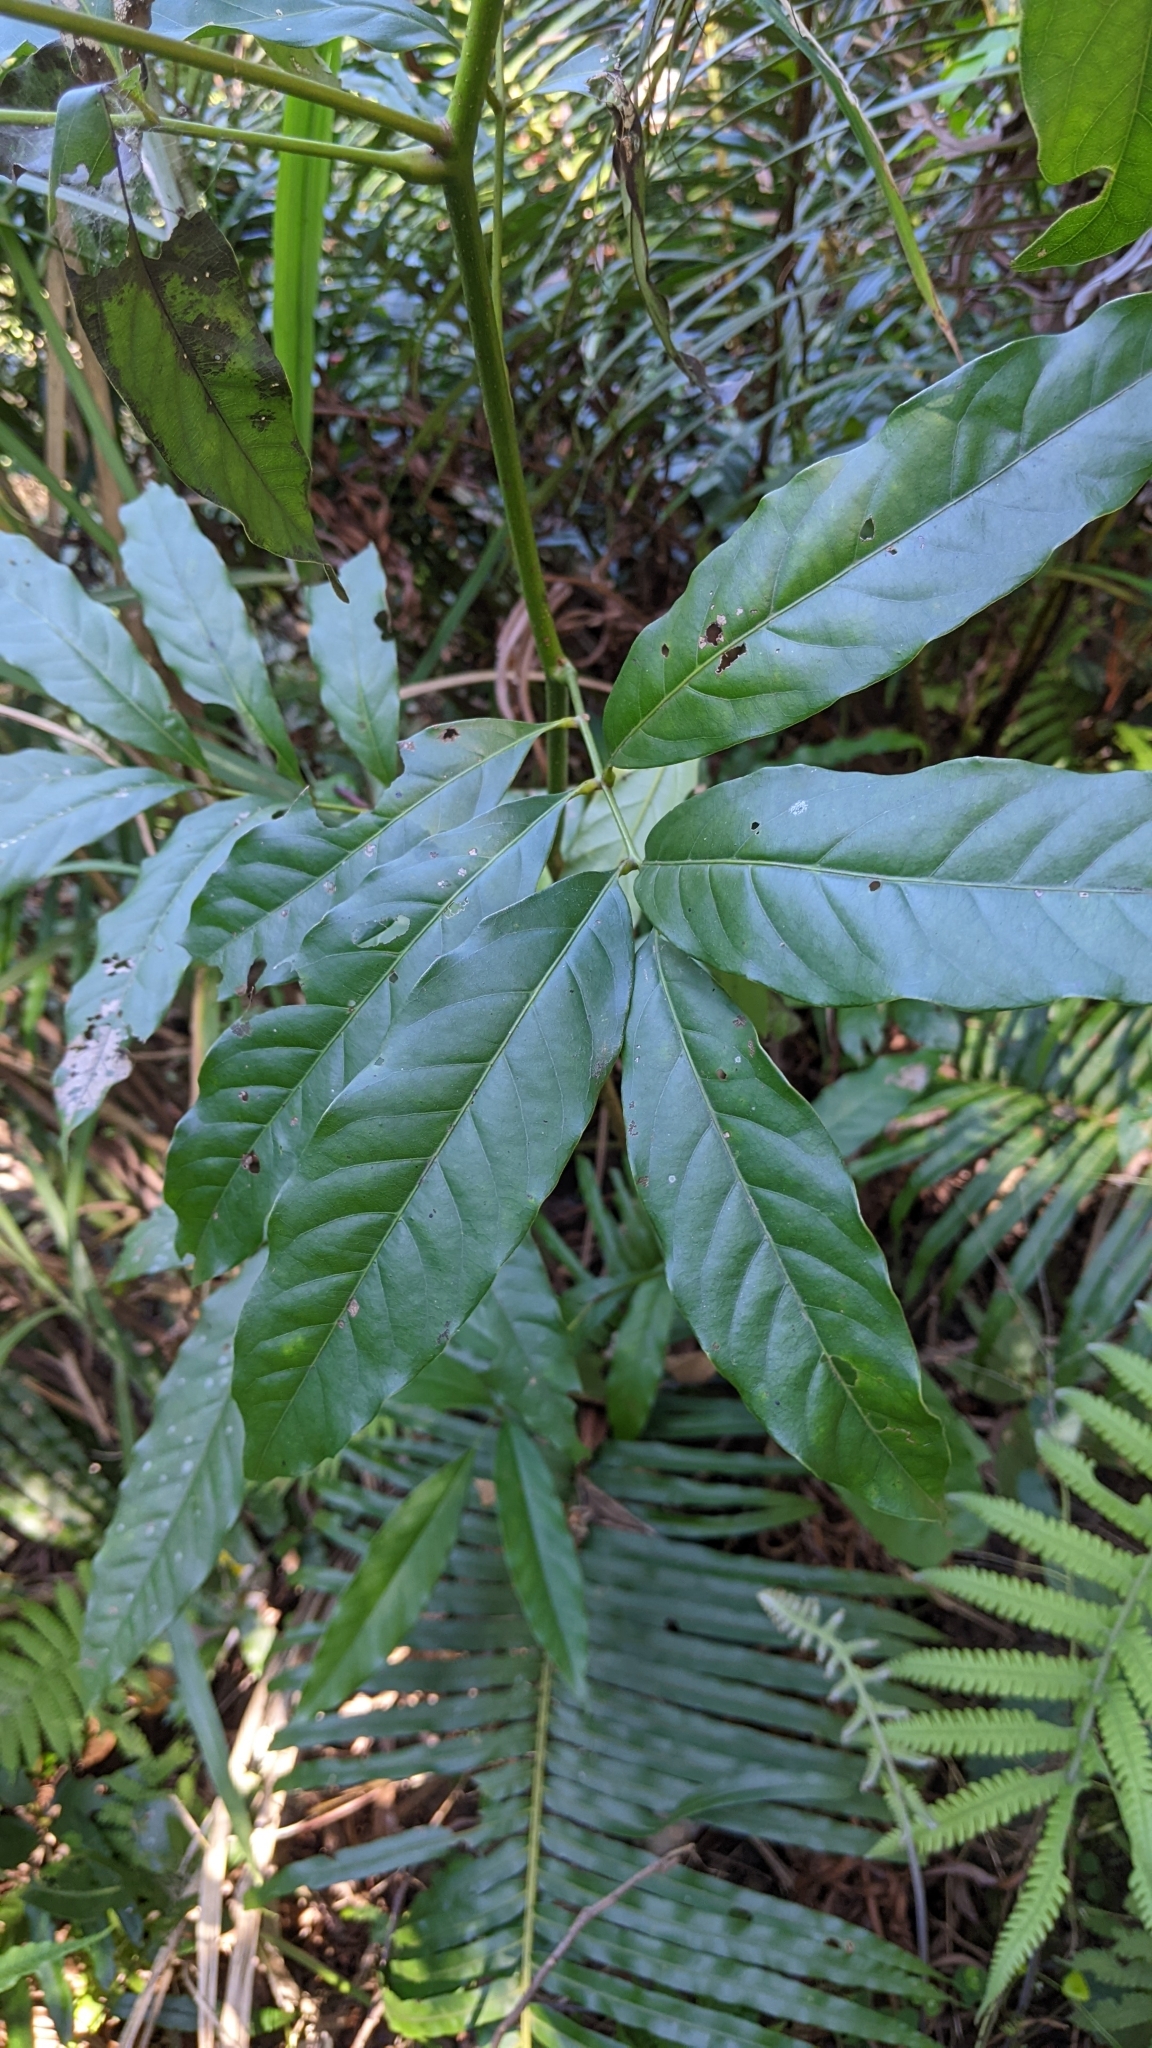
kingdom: Plantae
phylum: Tracheophyta
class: Magnoliopsida
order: Fagales
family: Juglandaceae
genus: Engelhardia
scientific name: Engelhardia roxburghiana
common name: Golden malay beam
